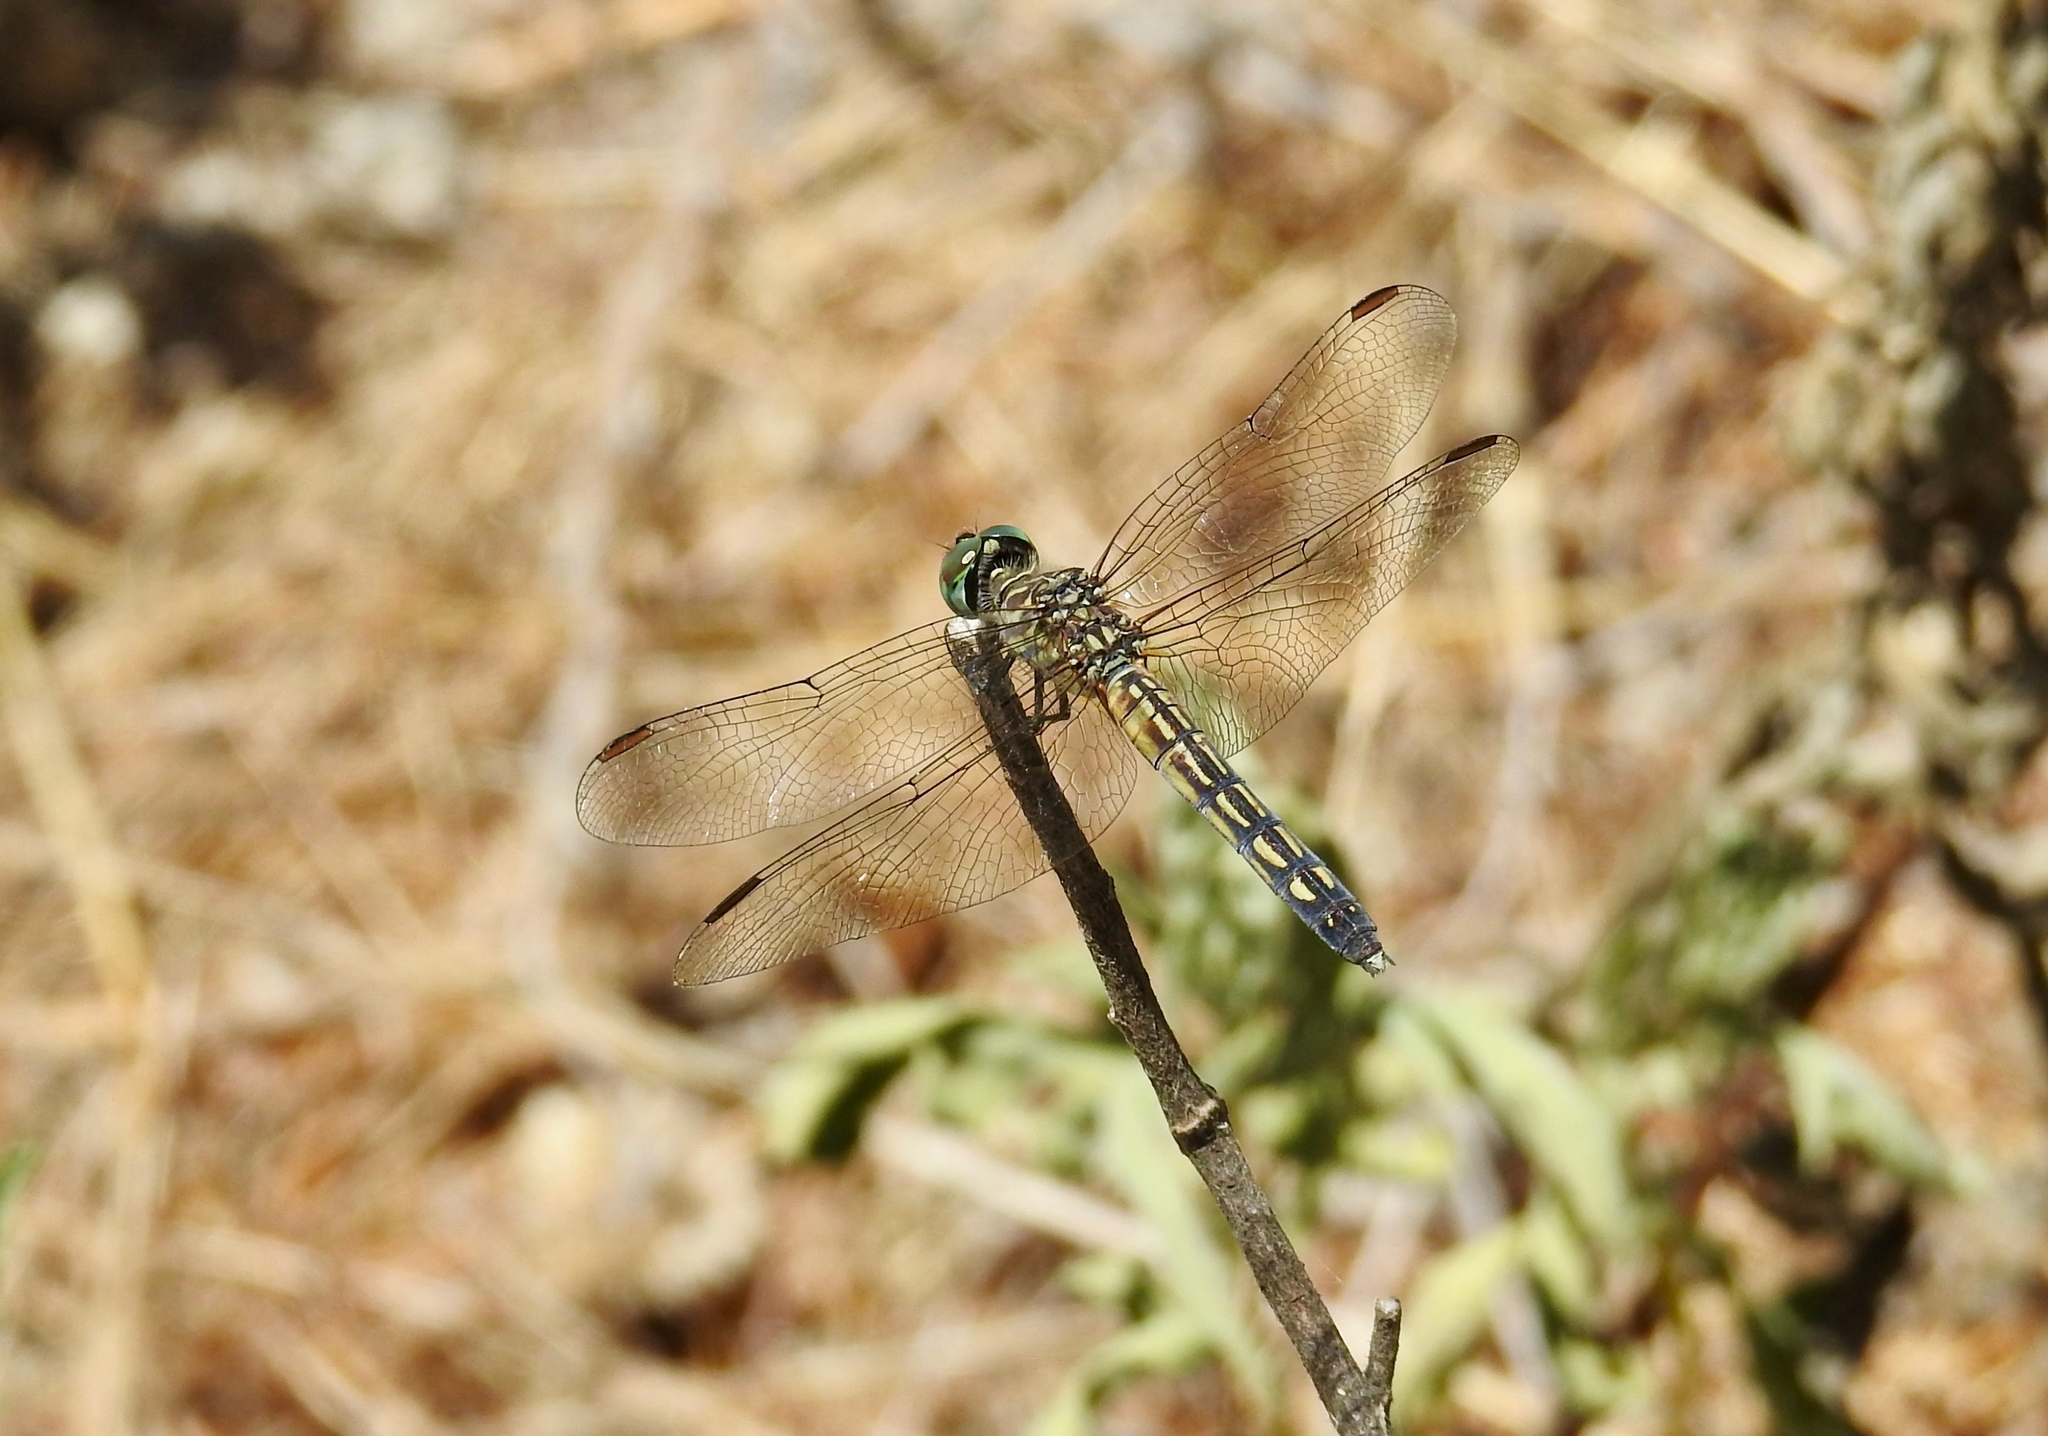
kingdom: Animalia
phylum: Arthropoda
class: Insecta
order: Odonata
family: Libellulidae
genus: Pachydiplax
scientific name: Pachydiplax longipennis
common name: Blue dasher
